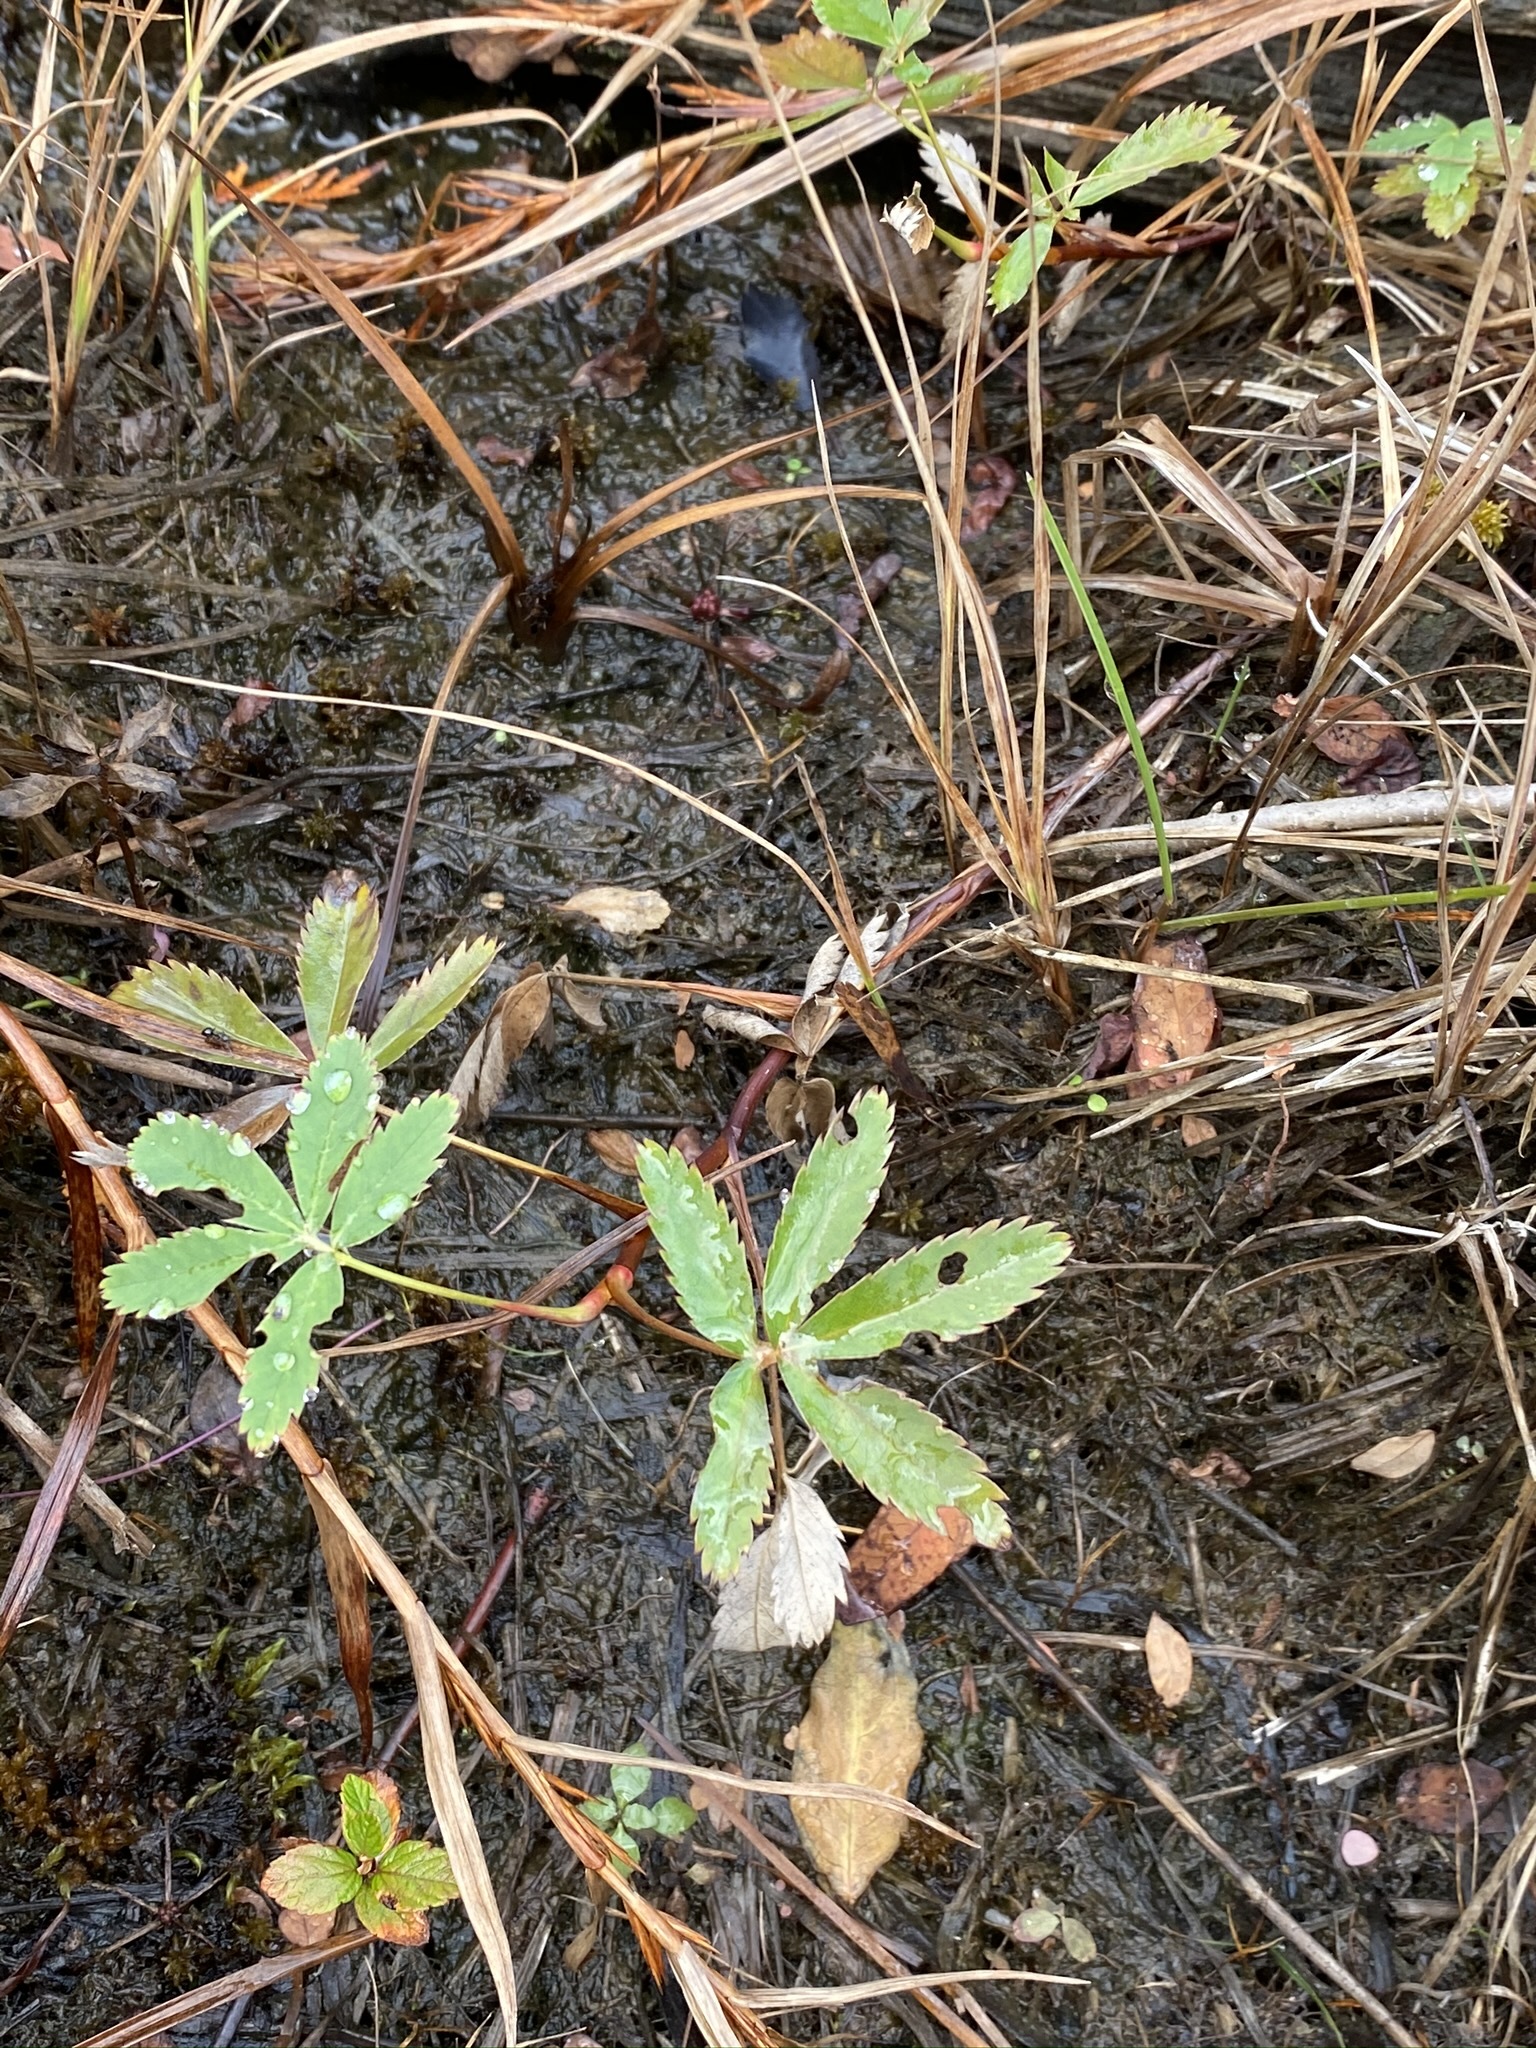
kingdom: Plantae
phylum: Tracheophyta
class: Magnoliopsida
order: Rosales
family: Rosaceae
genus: Comarum
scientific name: Comarum palustre
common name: Marsh cinquefoil
